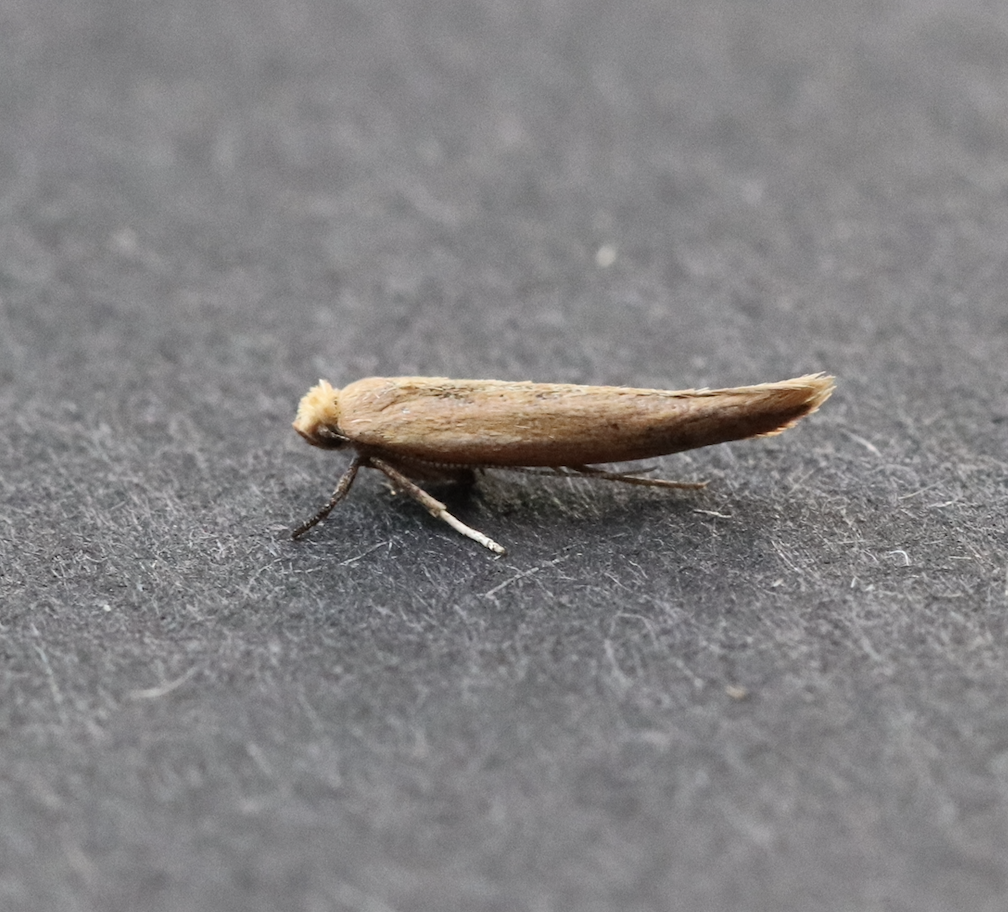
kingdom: Animalia
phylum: Arthropoda
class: Insecta
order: Lepidoptera
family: Yponomeutidae
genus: Zelleria
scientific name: Zelleria hepariella
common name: Brown ash ermine
